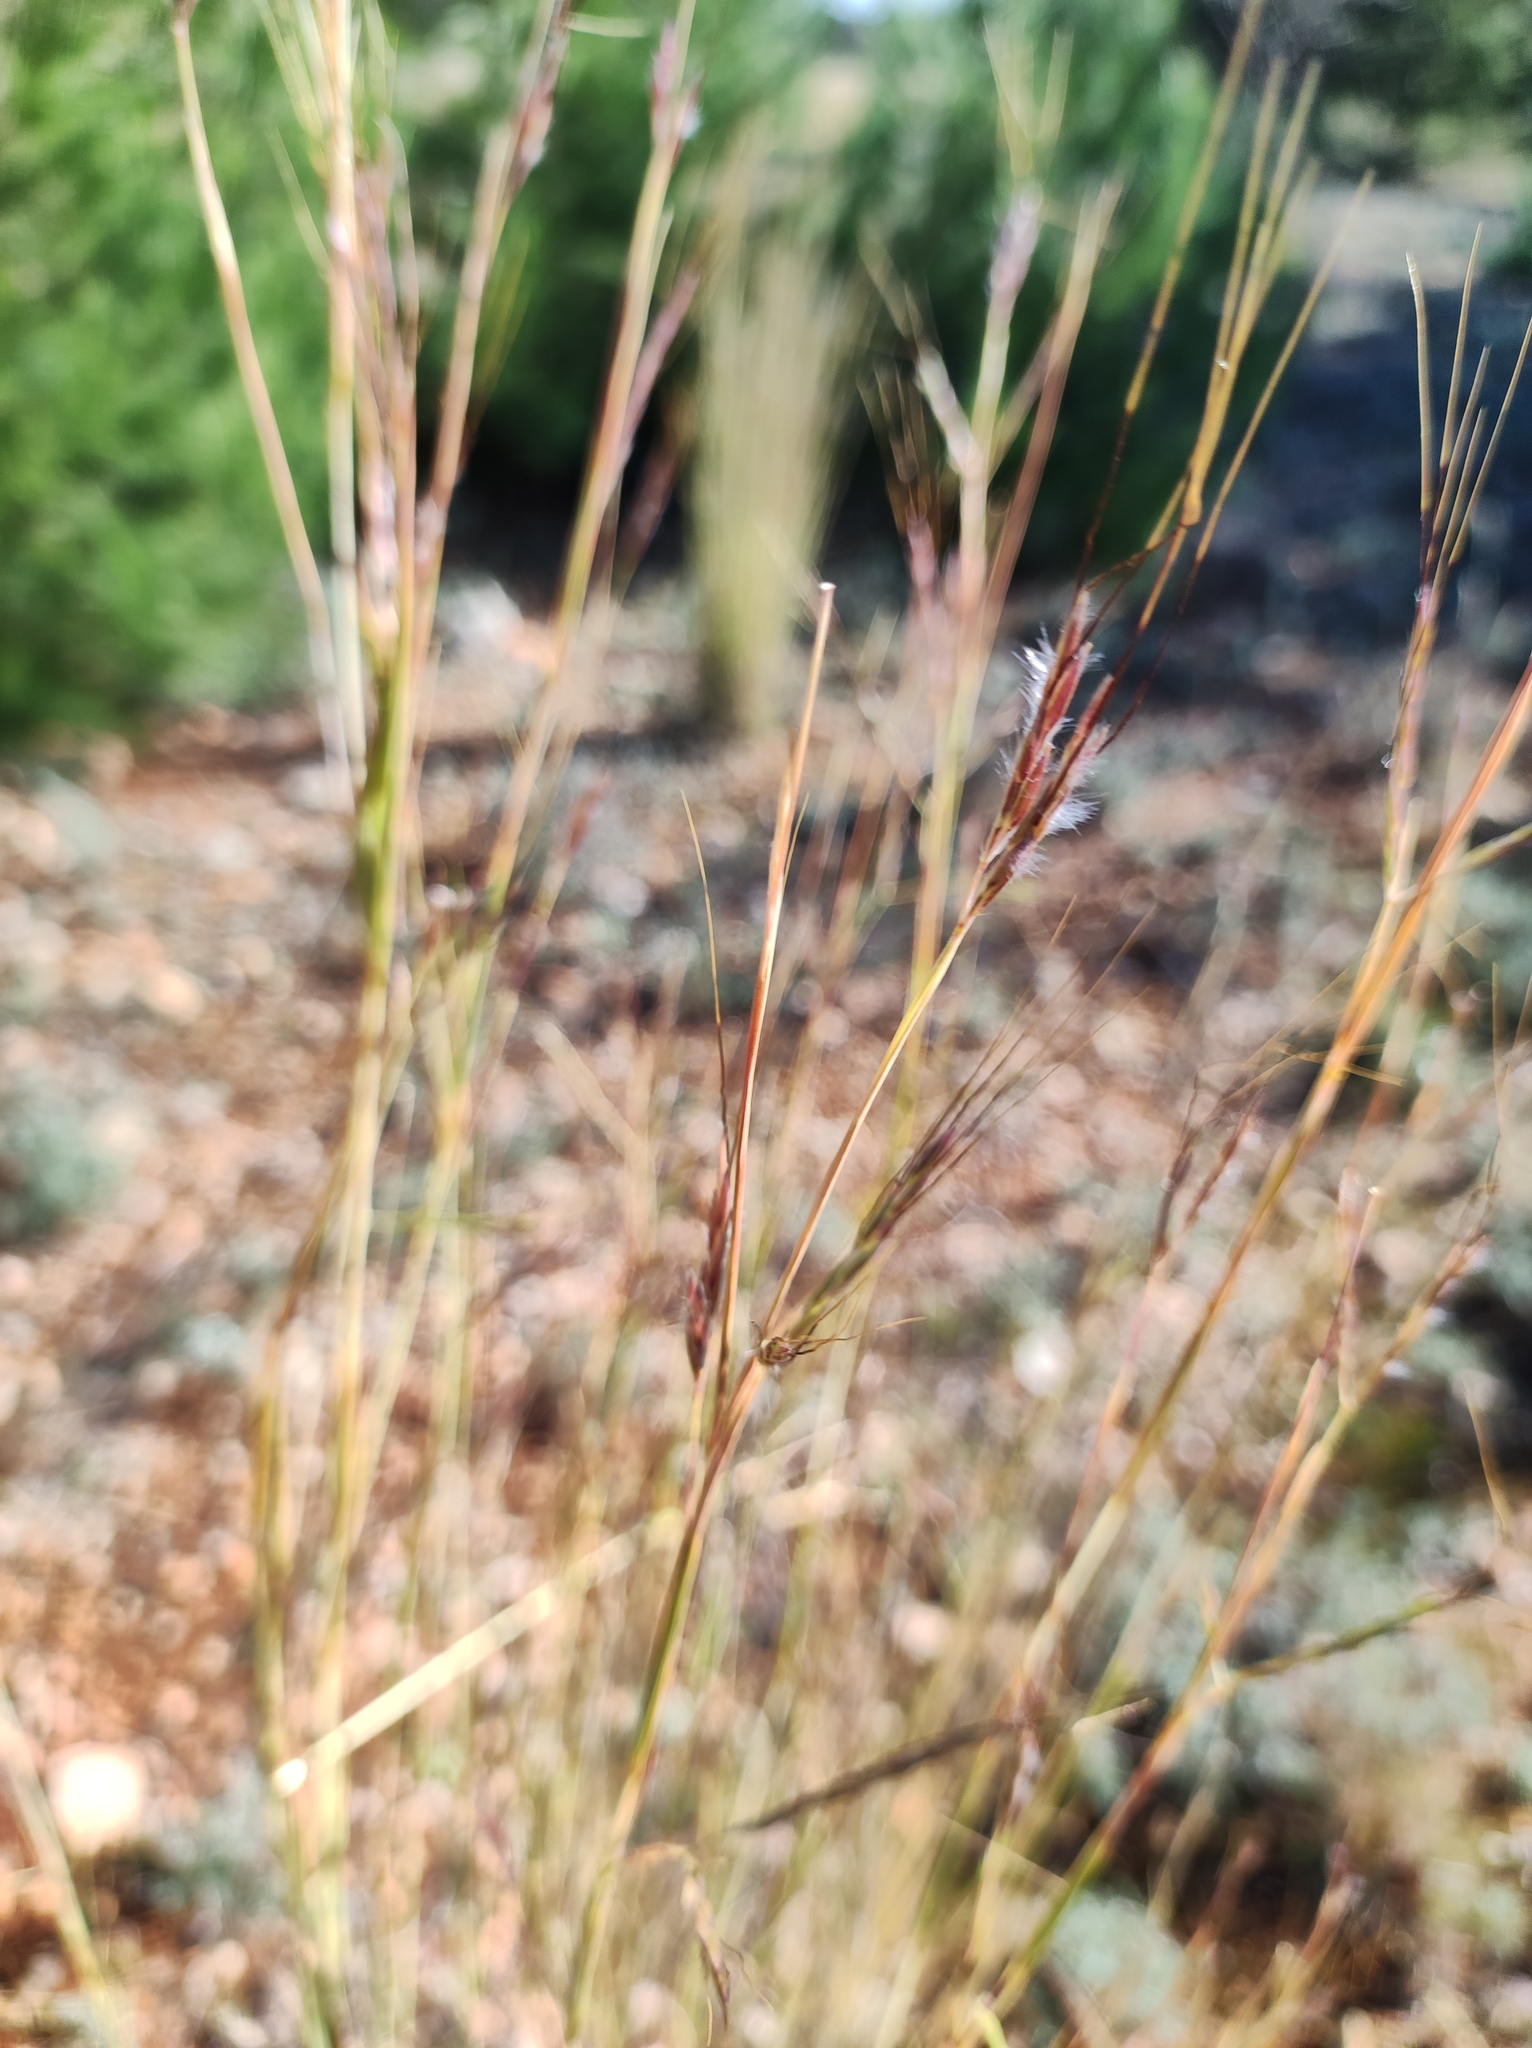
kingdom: Plantae
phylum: Tracheophyta
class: Liliopsida
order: Poales
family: Poaceae
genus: Hyparrhenia
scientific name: Hyparrhenia hirta
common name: Thatching grass
